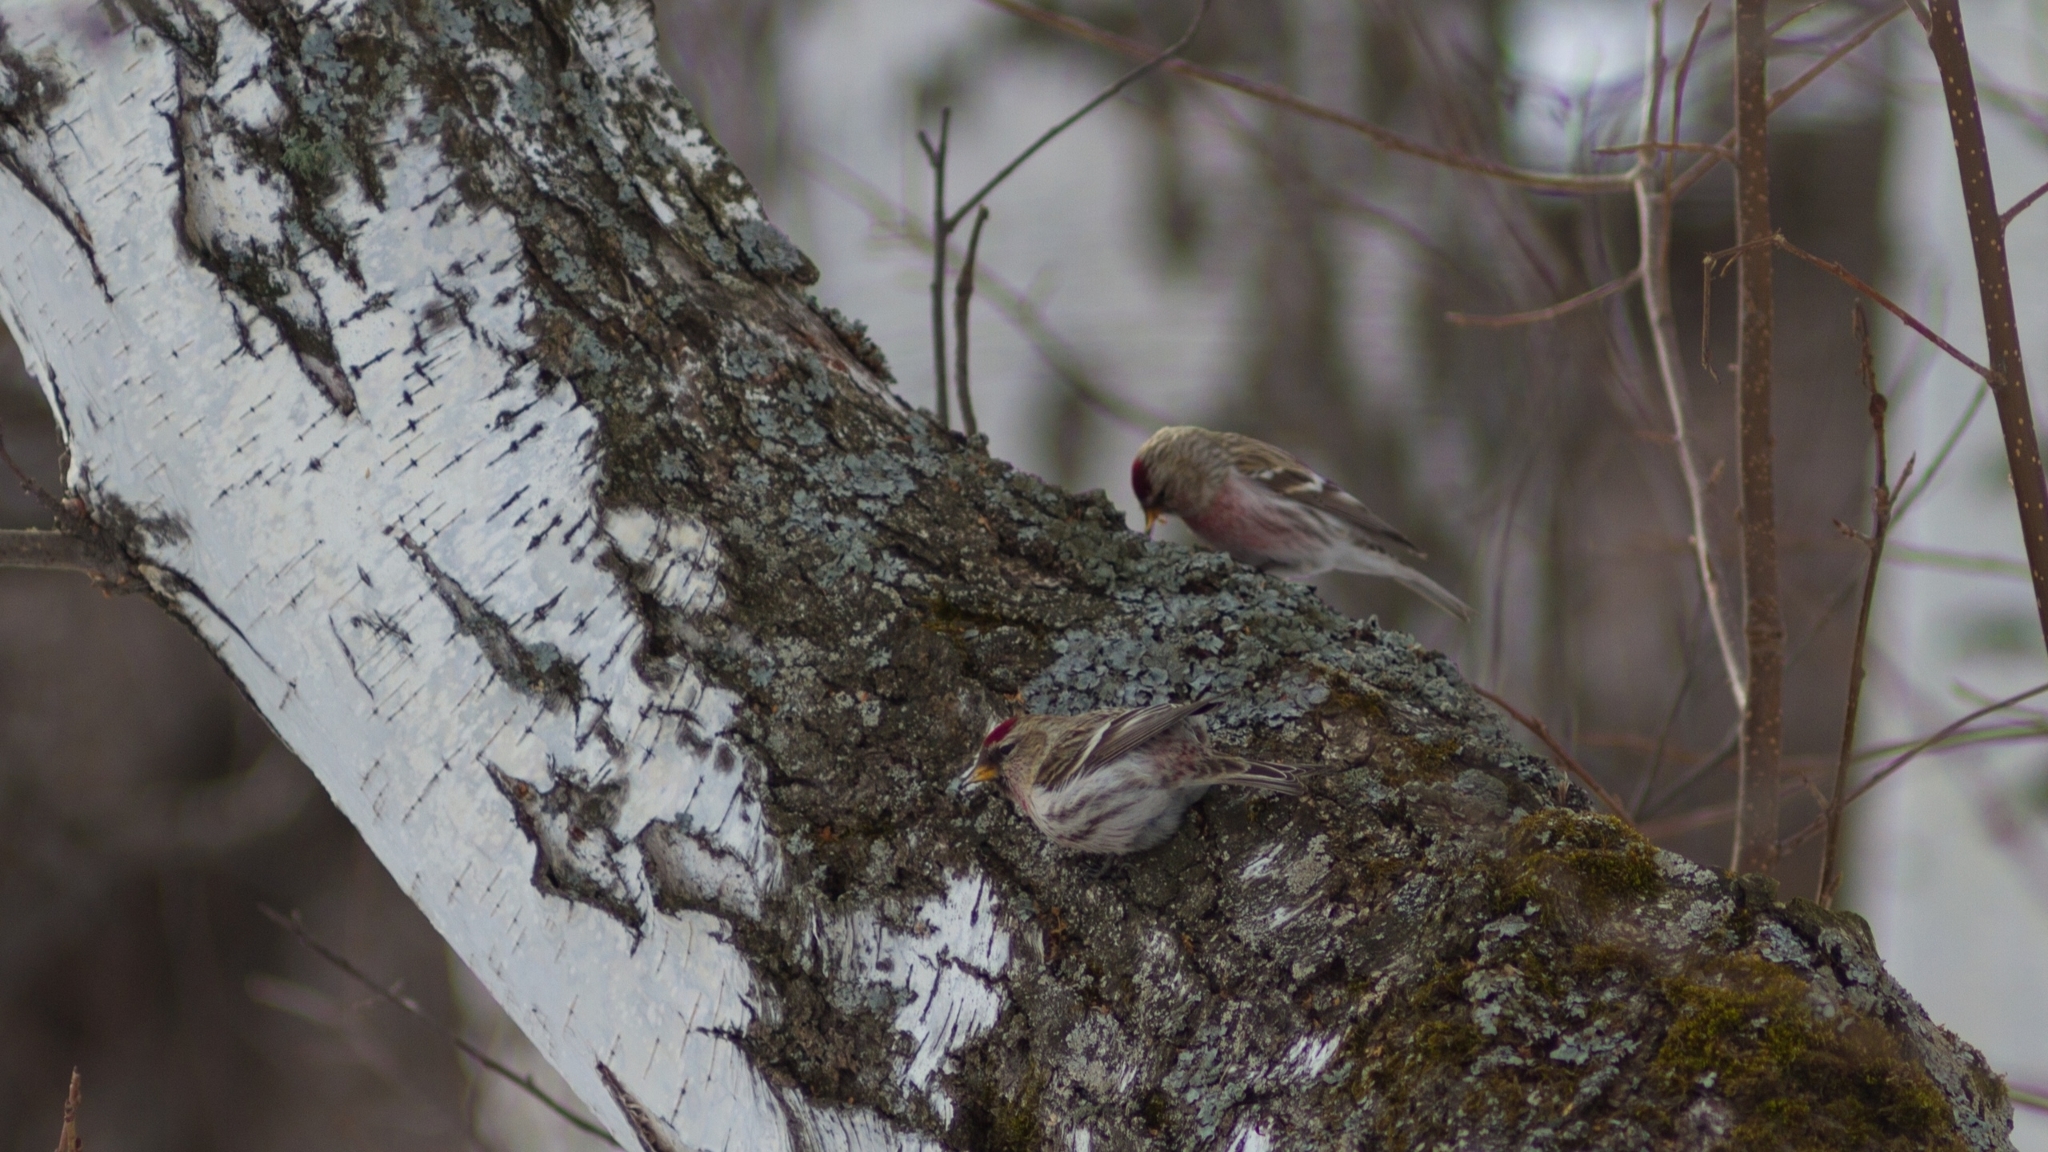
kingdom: Animalia
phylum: Chordata
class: Aves
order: Passeriformes
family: Fringillidae
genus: Acanthis
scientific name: Acanthis flammea
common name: Common redpoll
